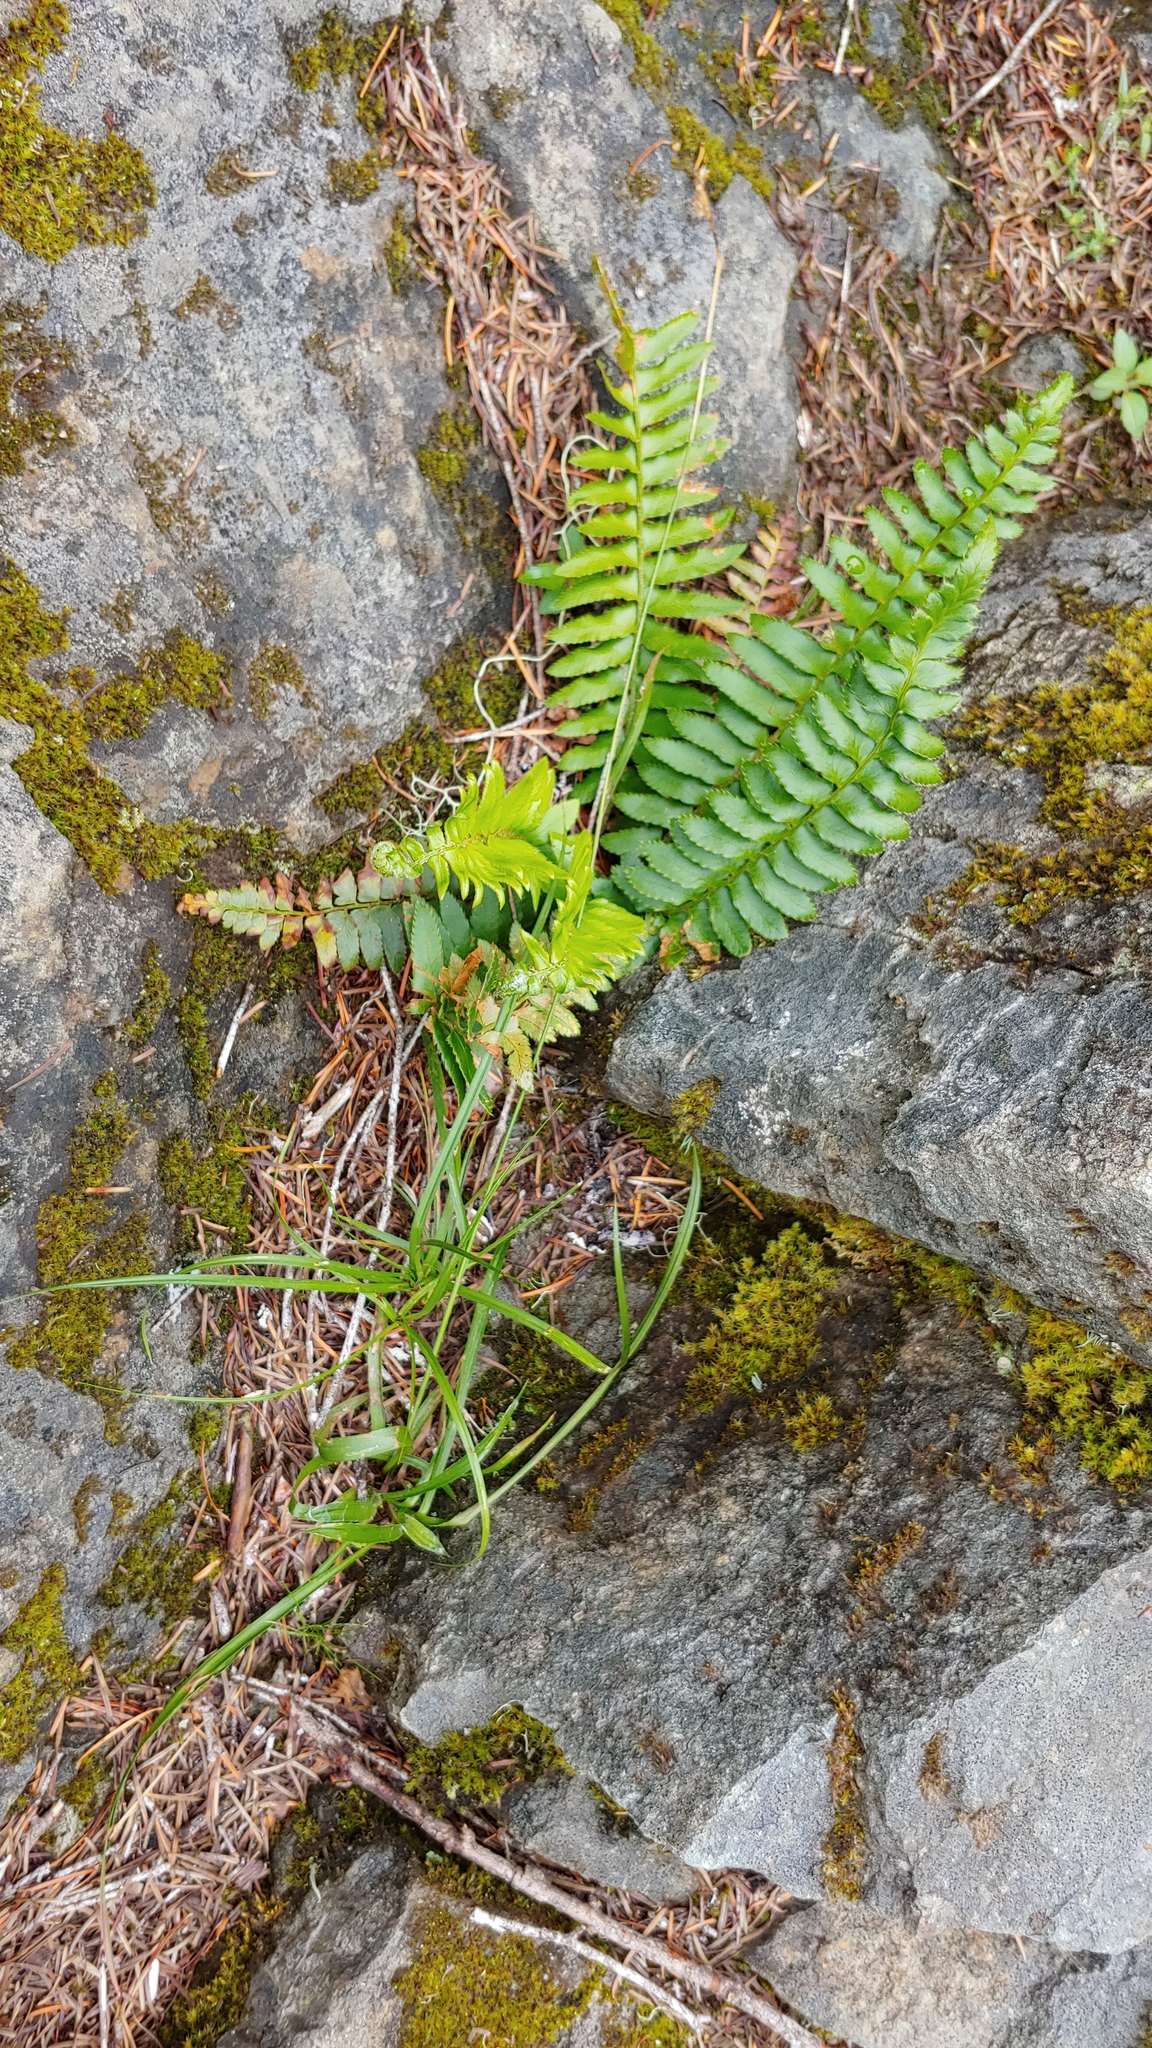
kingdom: Plantae
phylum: Tracheophyta
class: Polypodiopsida
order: Polypodiales
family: Dryopteridaceae
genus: Polystichum
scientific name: Polystichum munitum
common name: Western sword-fern
